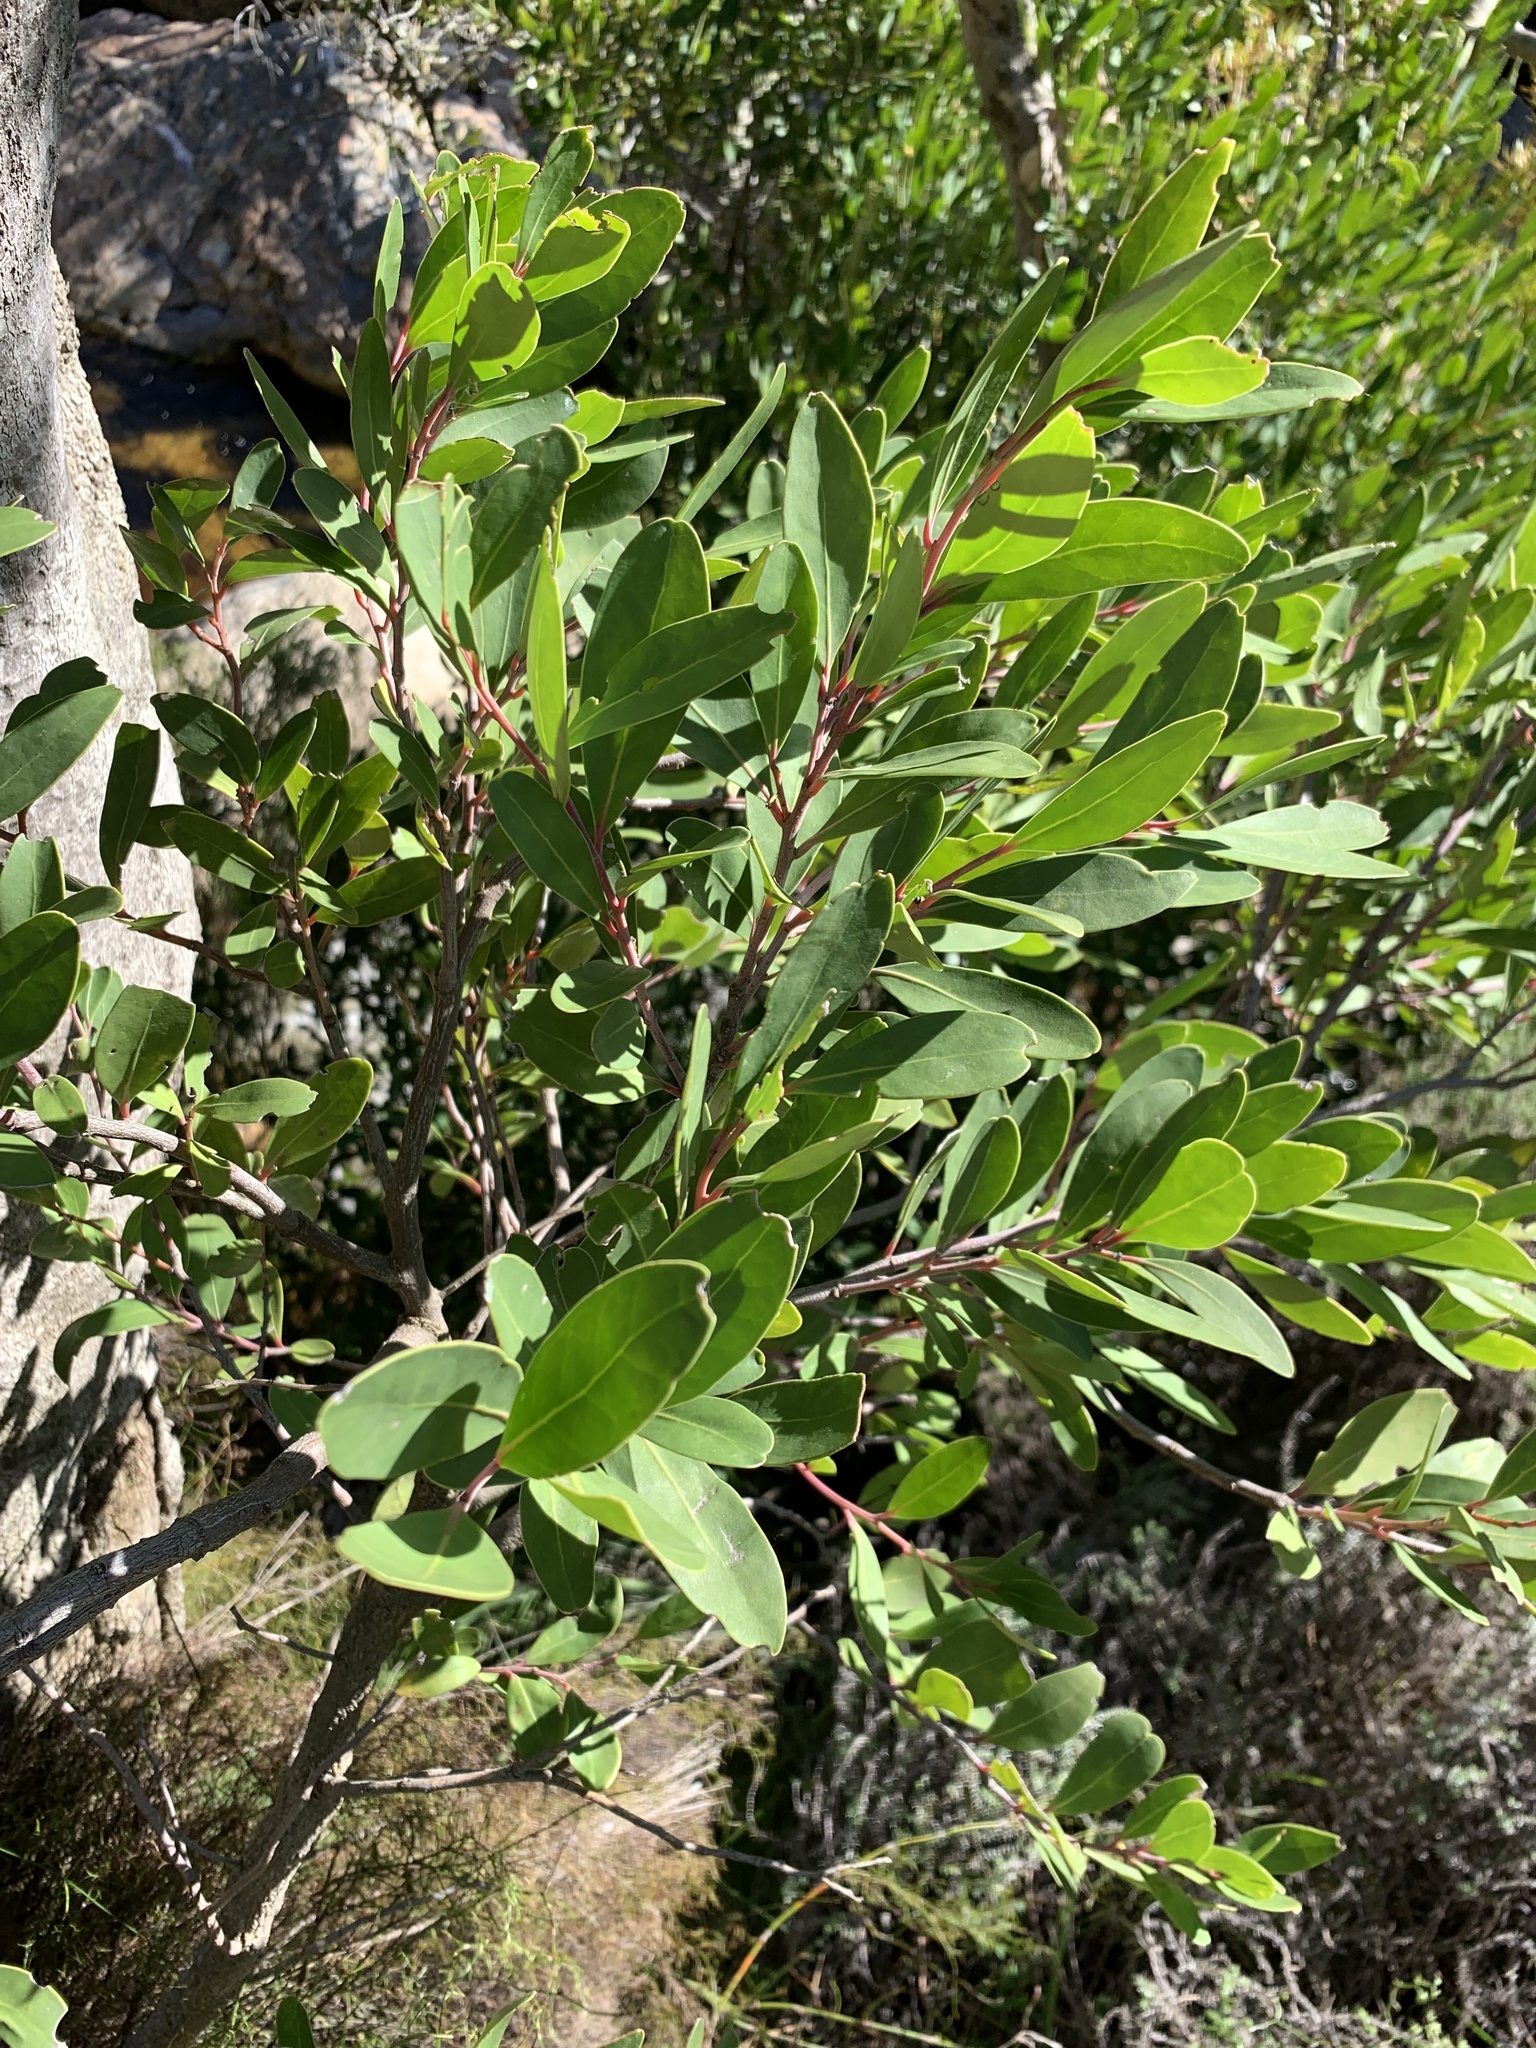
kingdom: Plantae
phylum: Tracheophyta
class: Magnoliopsida
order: Celastrales
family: Celastraceae
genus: Gymnosporia
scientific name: Gymnosporia laurina
